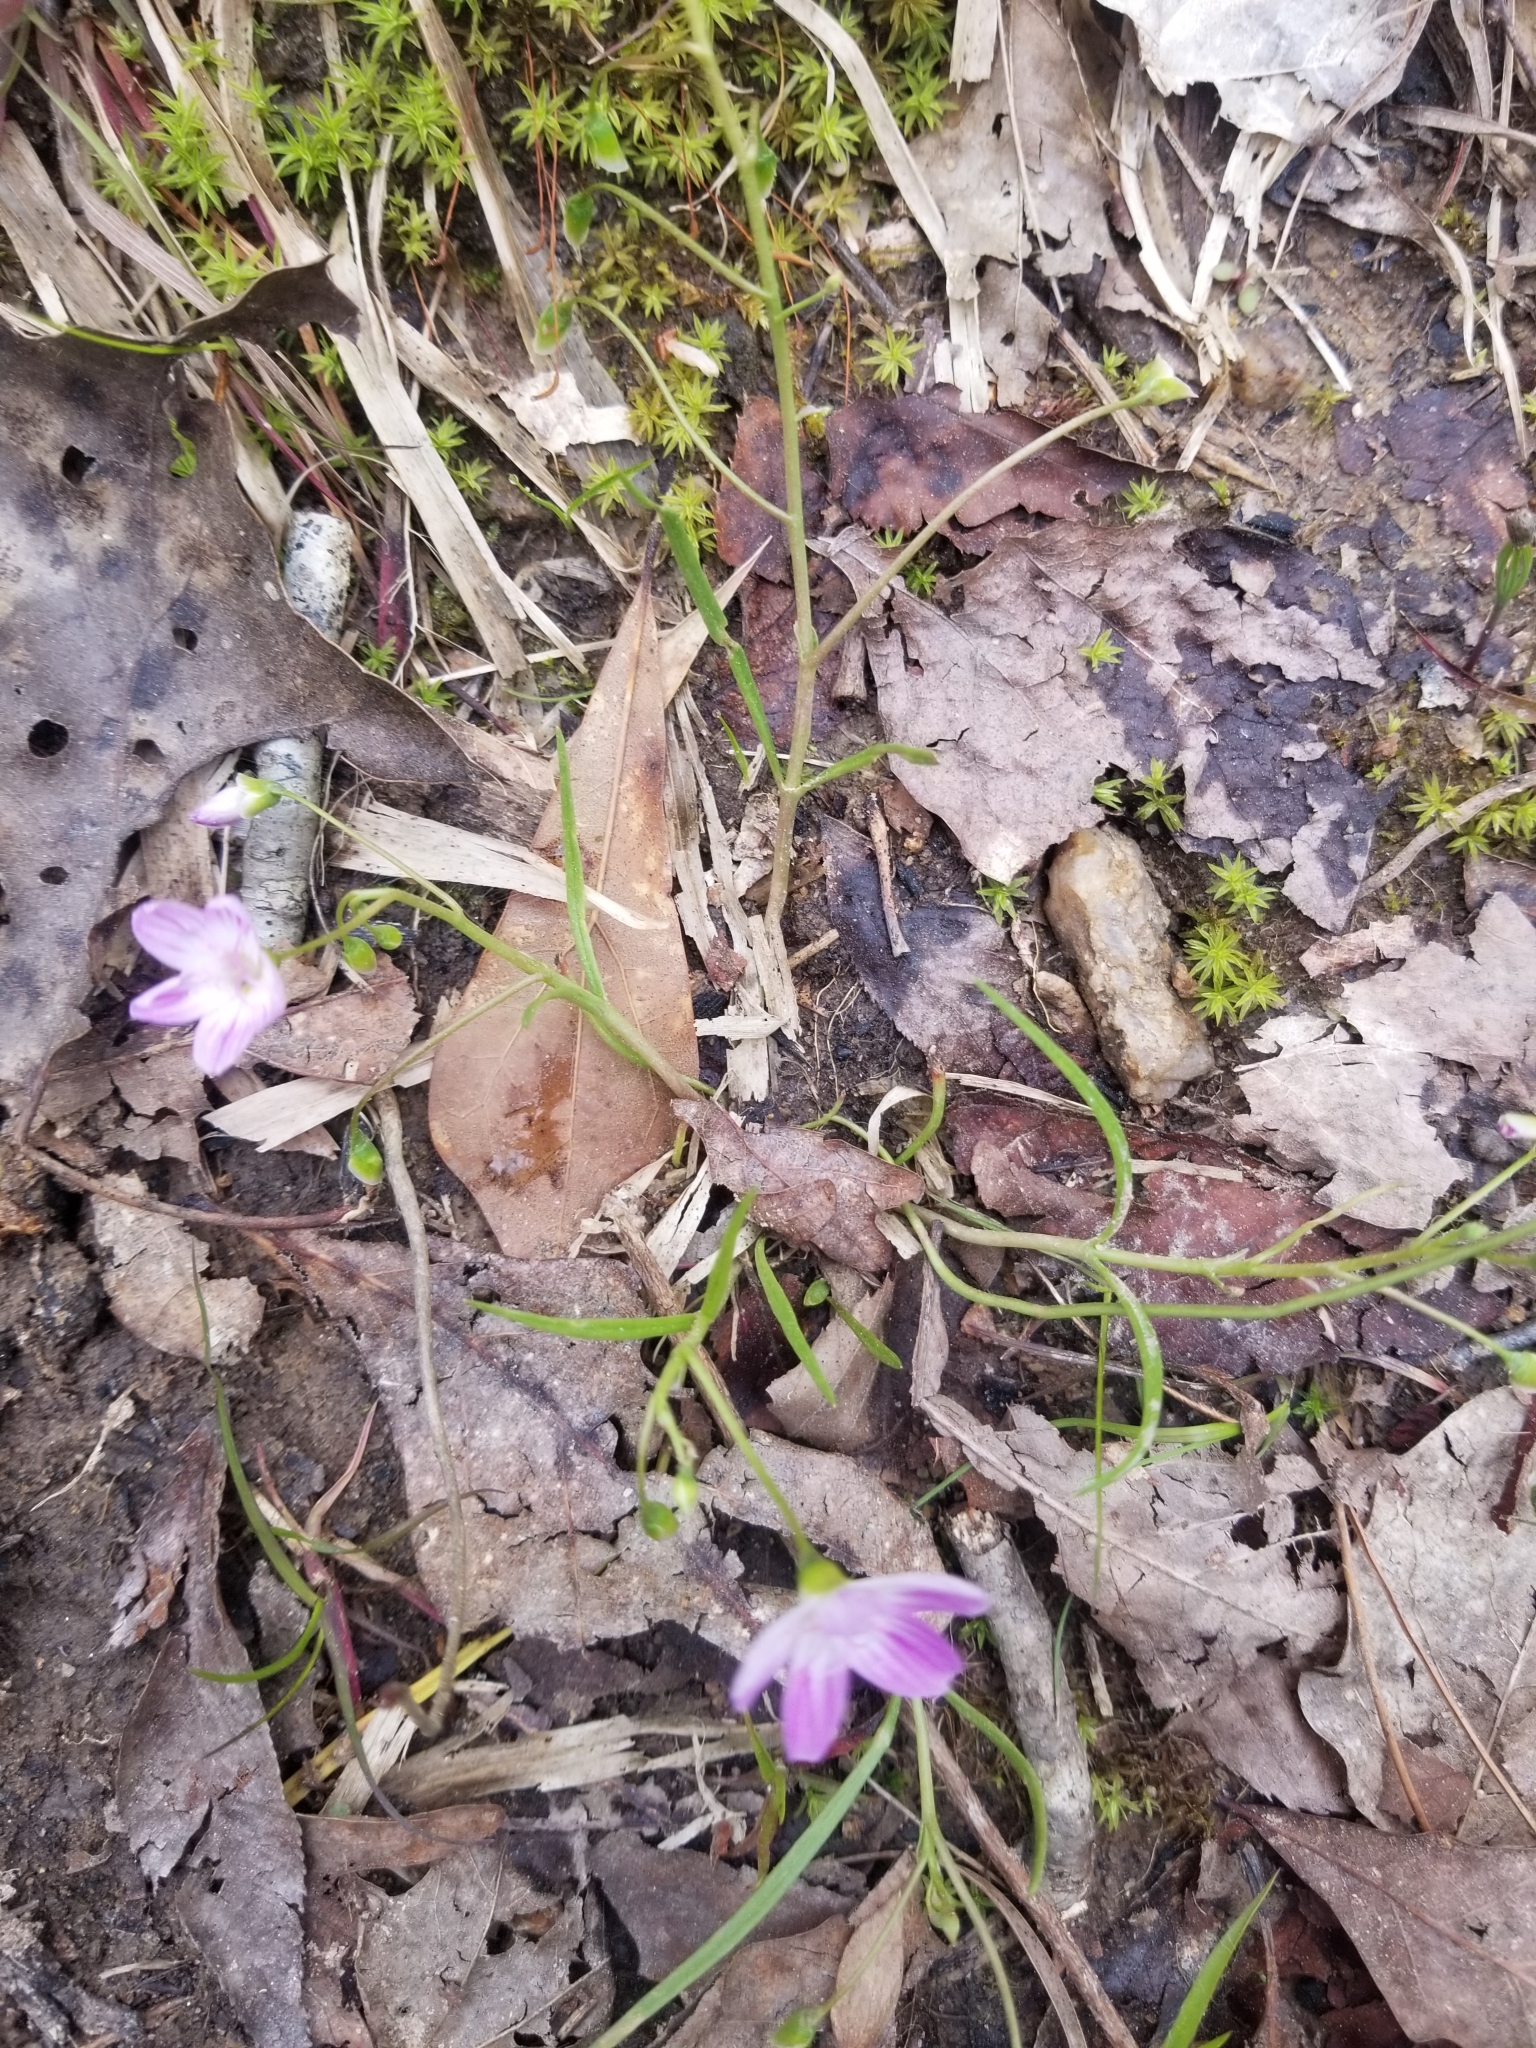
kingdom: Plantae
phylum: Tracheophyta
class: Magnoliopsida
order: Caryophyllales
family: Montiaceae
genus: Claytonia
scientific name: Claytonia virginica
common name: Virginia springbeauty
